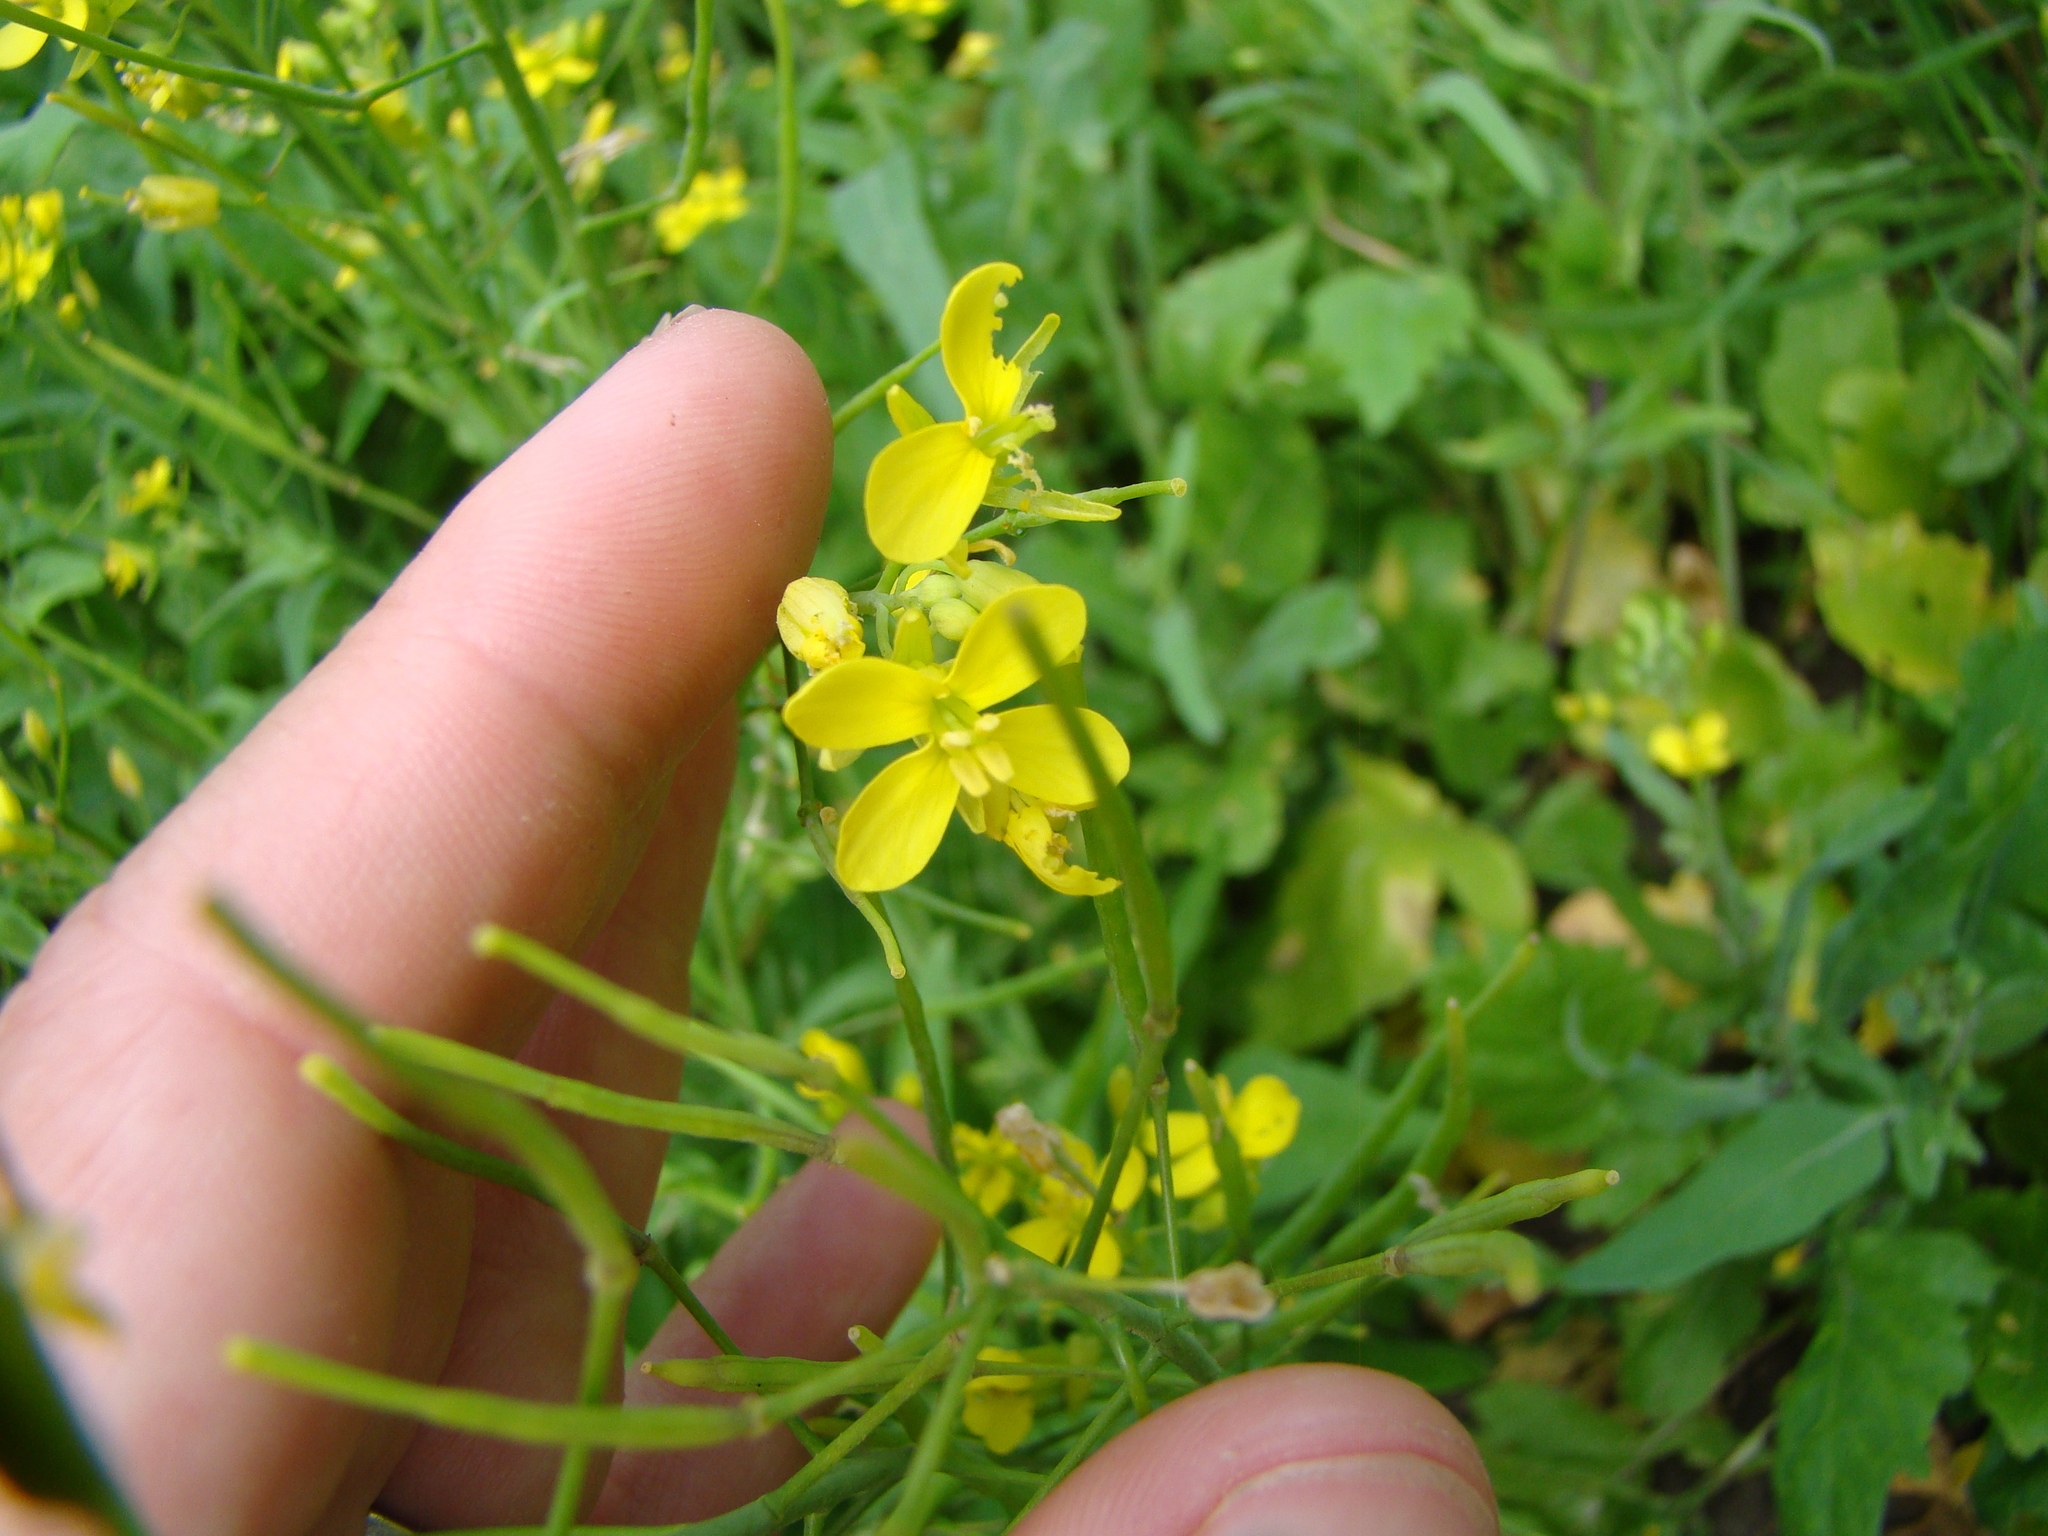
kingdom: Plantae
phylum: Tracheophyta
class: Magnoliopsida
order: Brassicales
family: Brassicaceae
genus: Brassica
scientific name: Brassica rapa
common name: Field mustard
